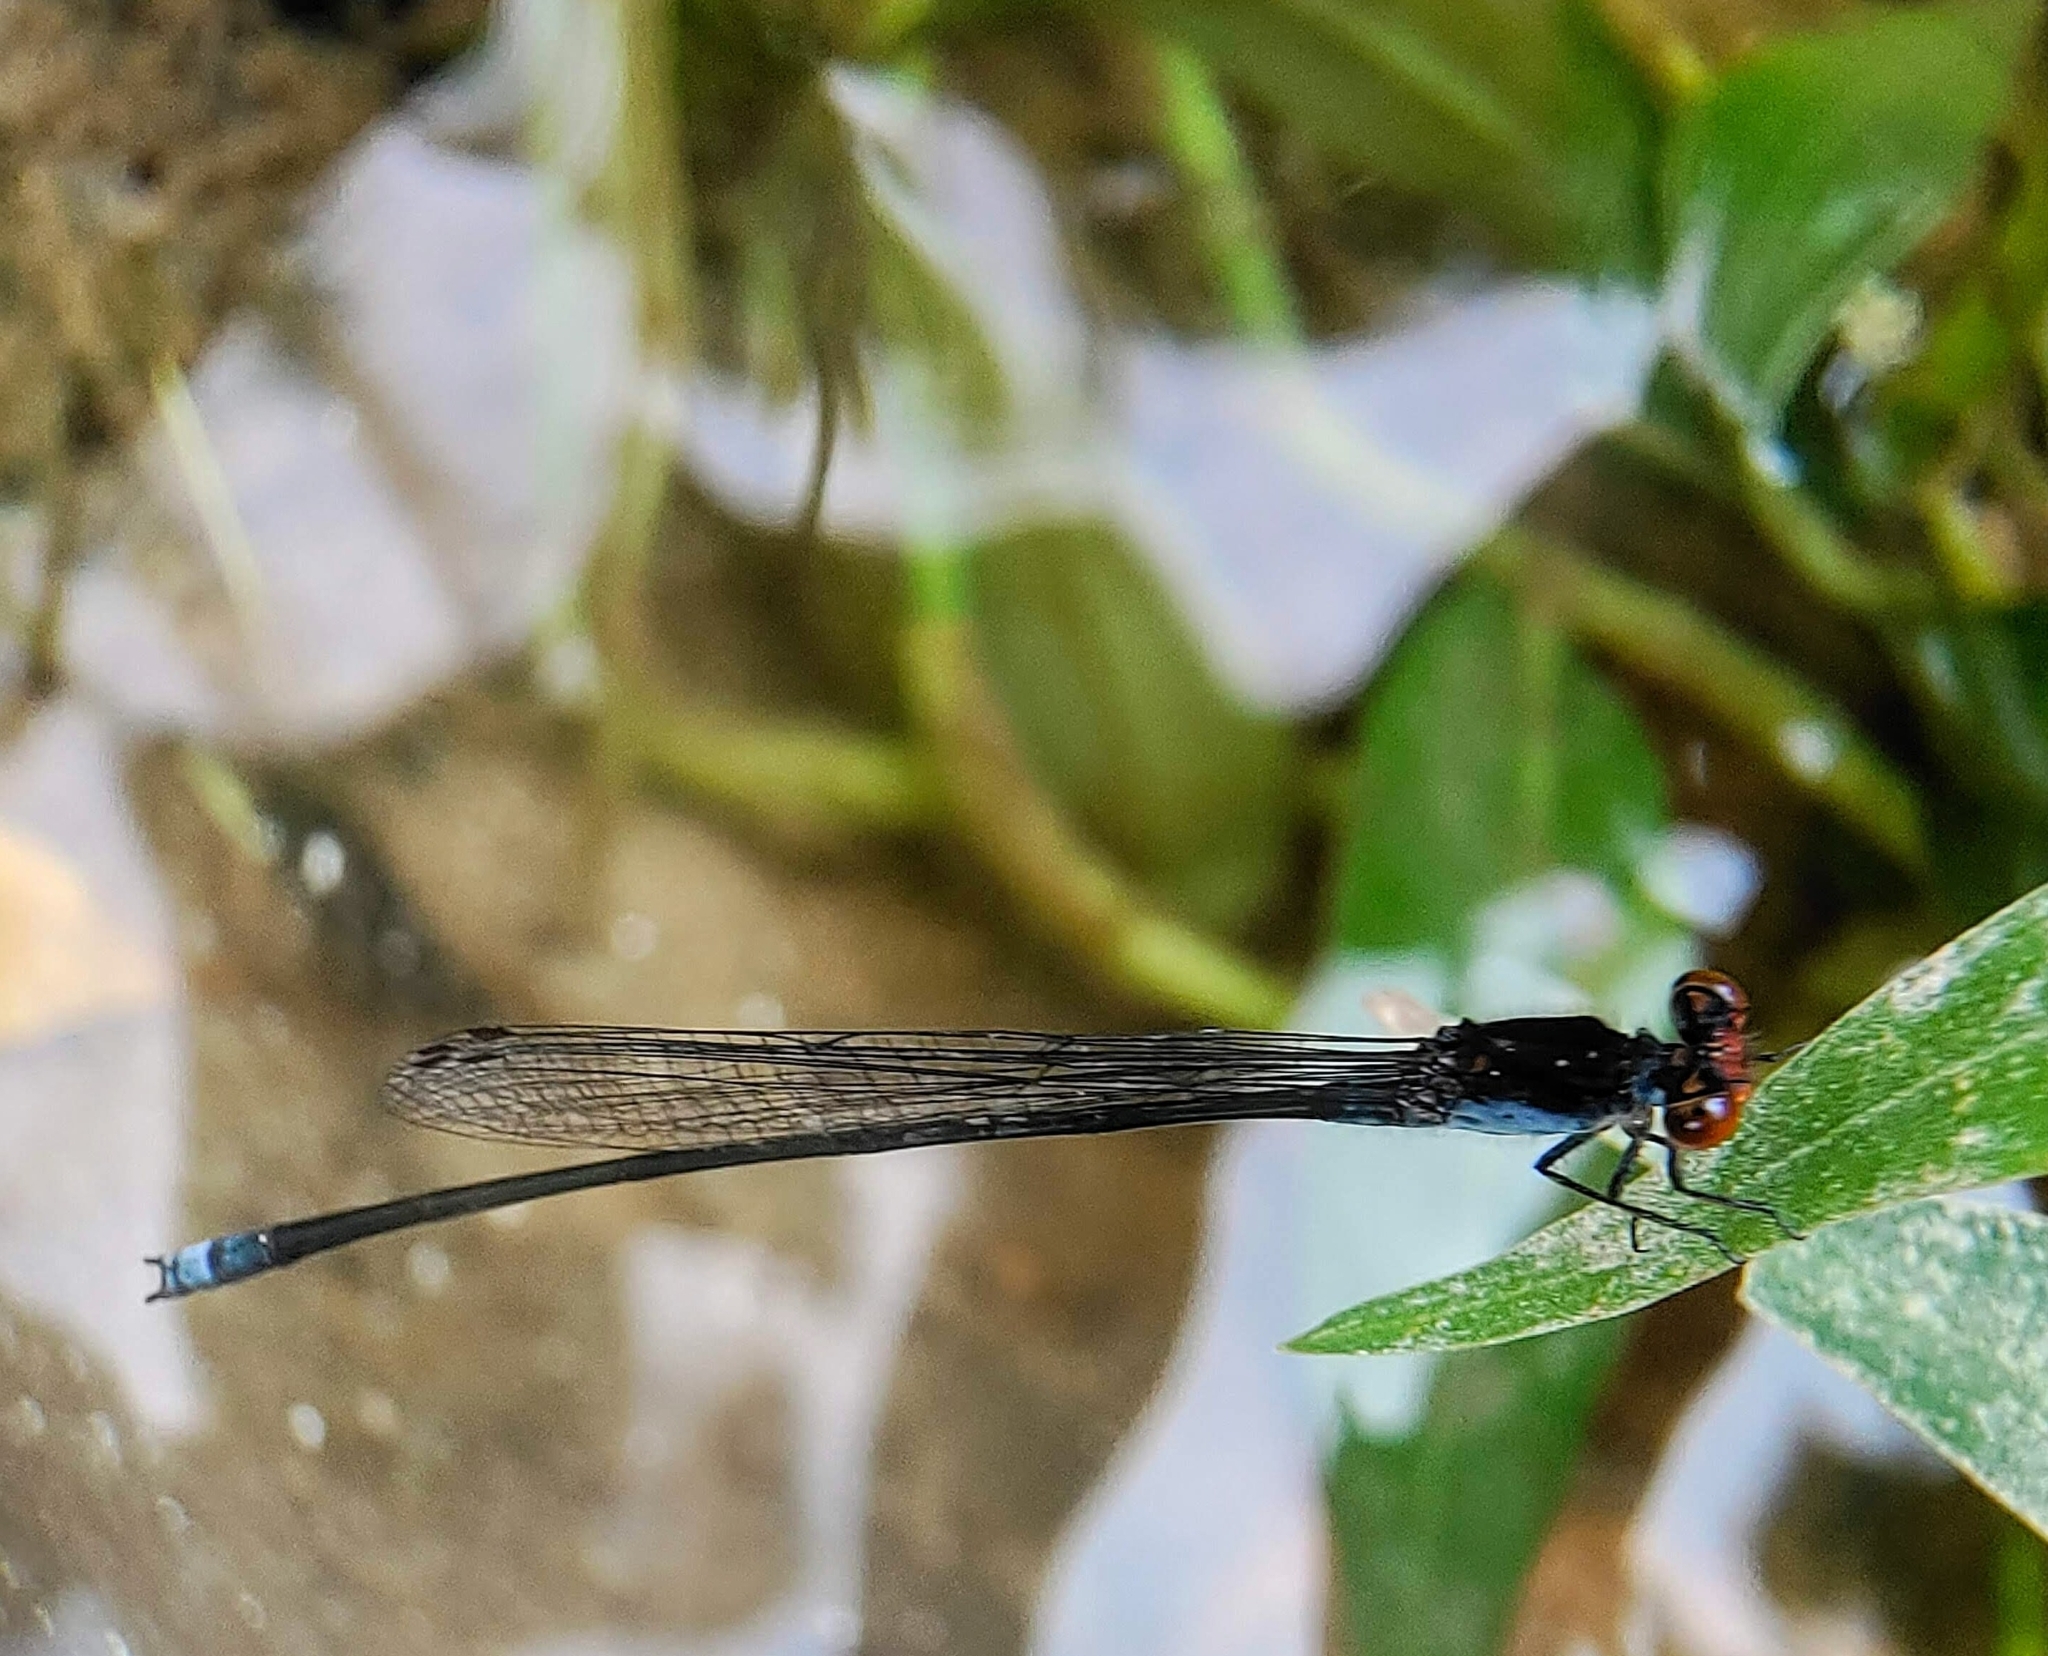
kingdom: Animalia
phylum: Arthropoda
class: Insecta
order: Odonata
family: Coenagrionidae
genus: Pseudagrion
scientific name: Pseudagrion pruinosum
